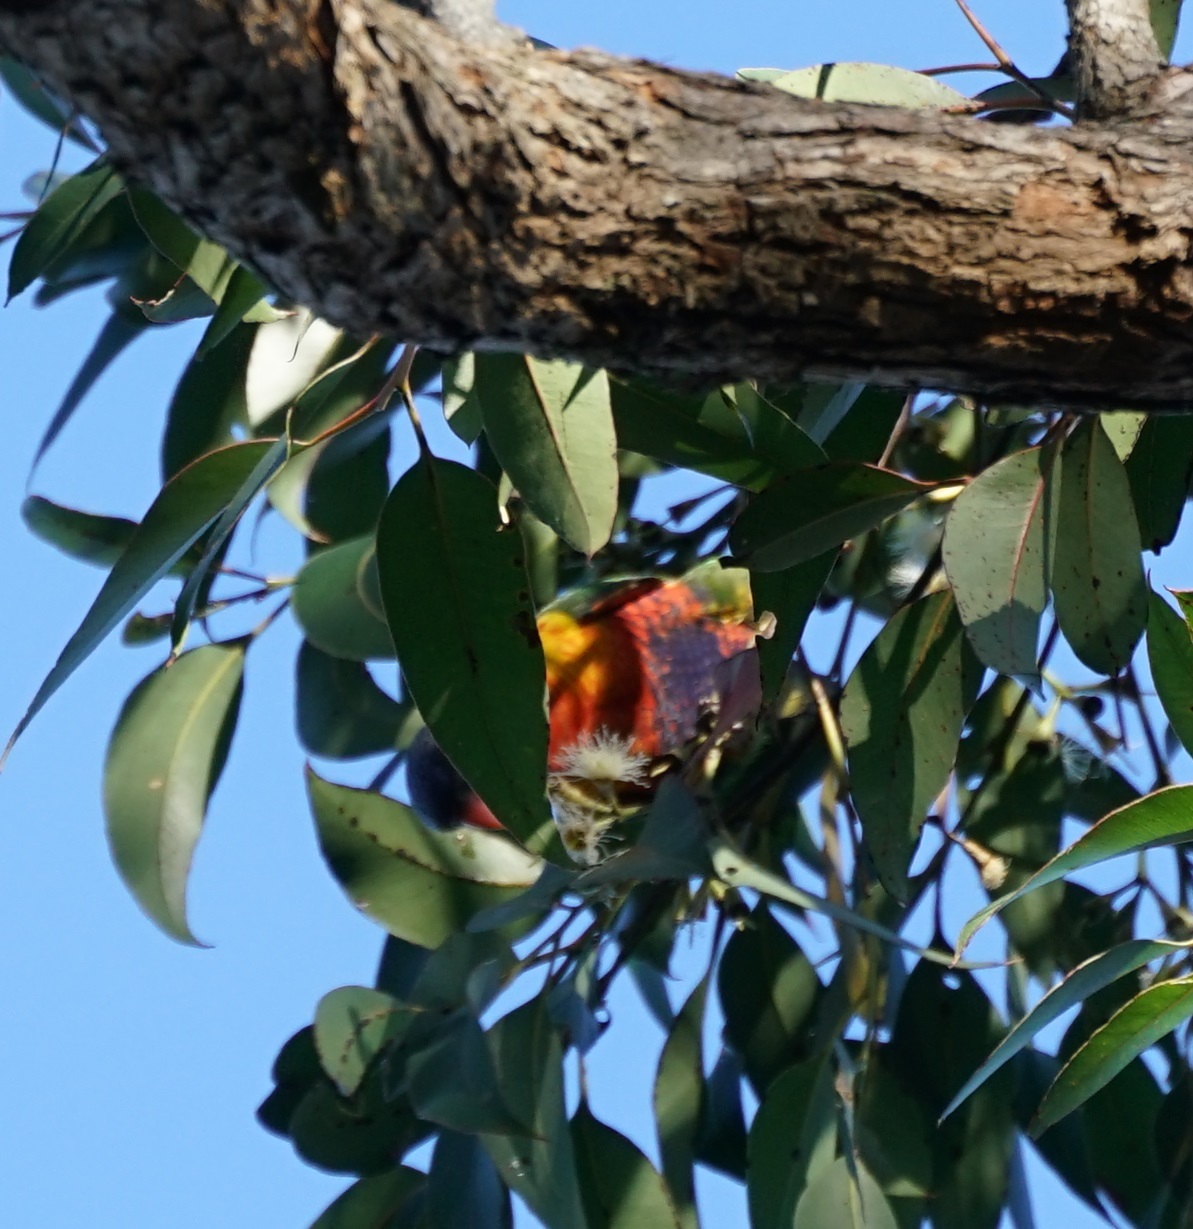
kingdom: Animalia
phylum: Chordata
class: Aves
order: Psittaciformes
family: Psittacidae
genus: Trichoglossus
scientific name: Trichoglossus haematodus
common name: Coconut lorikeet
